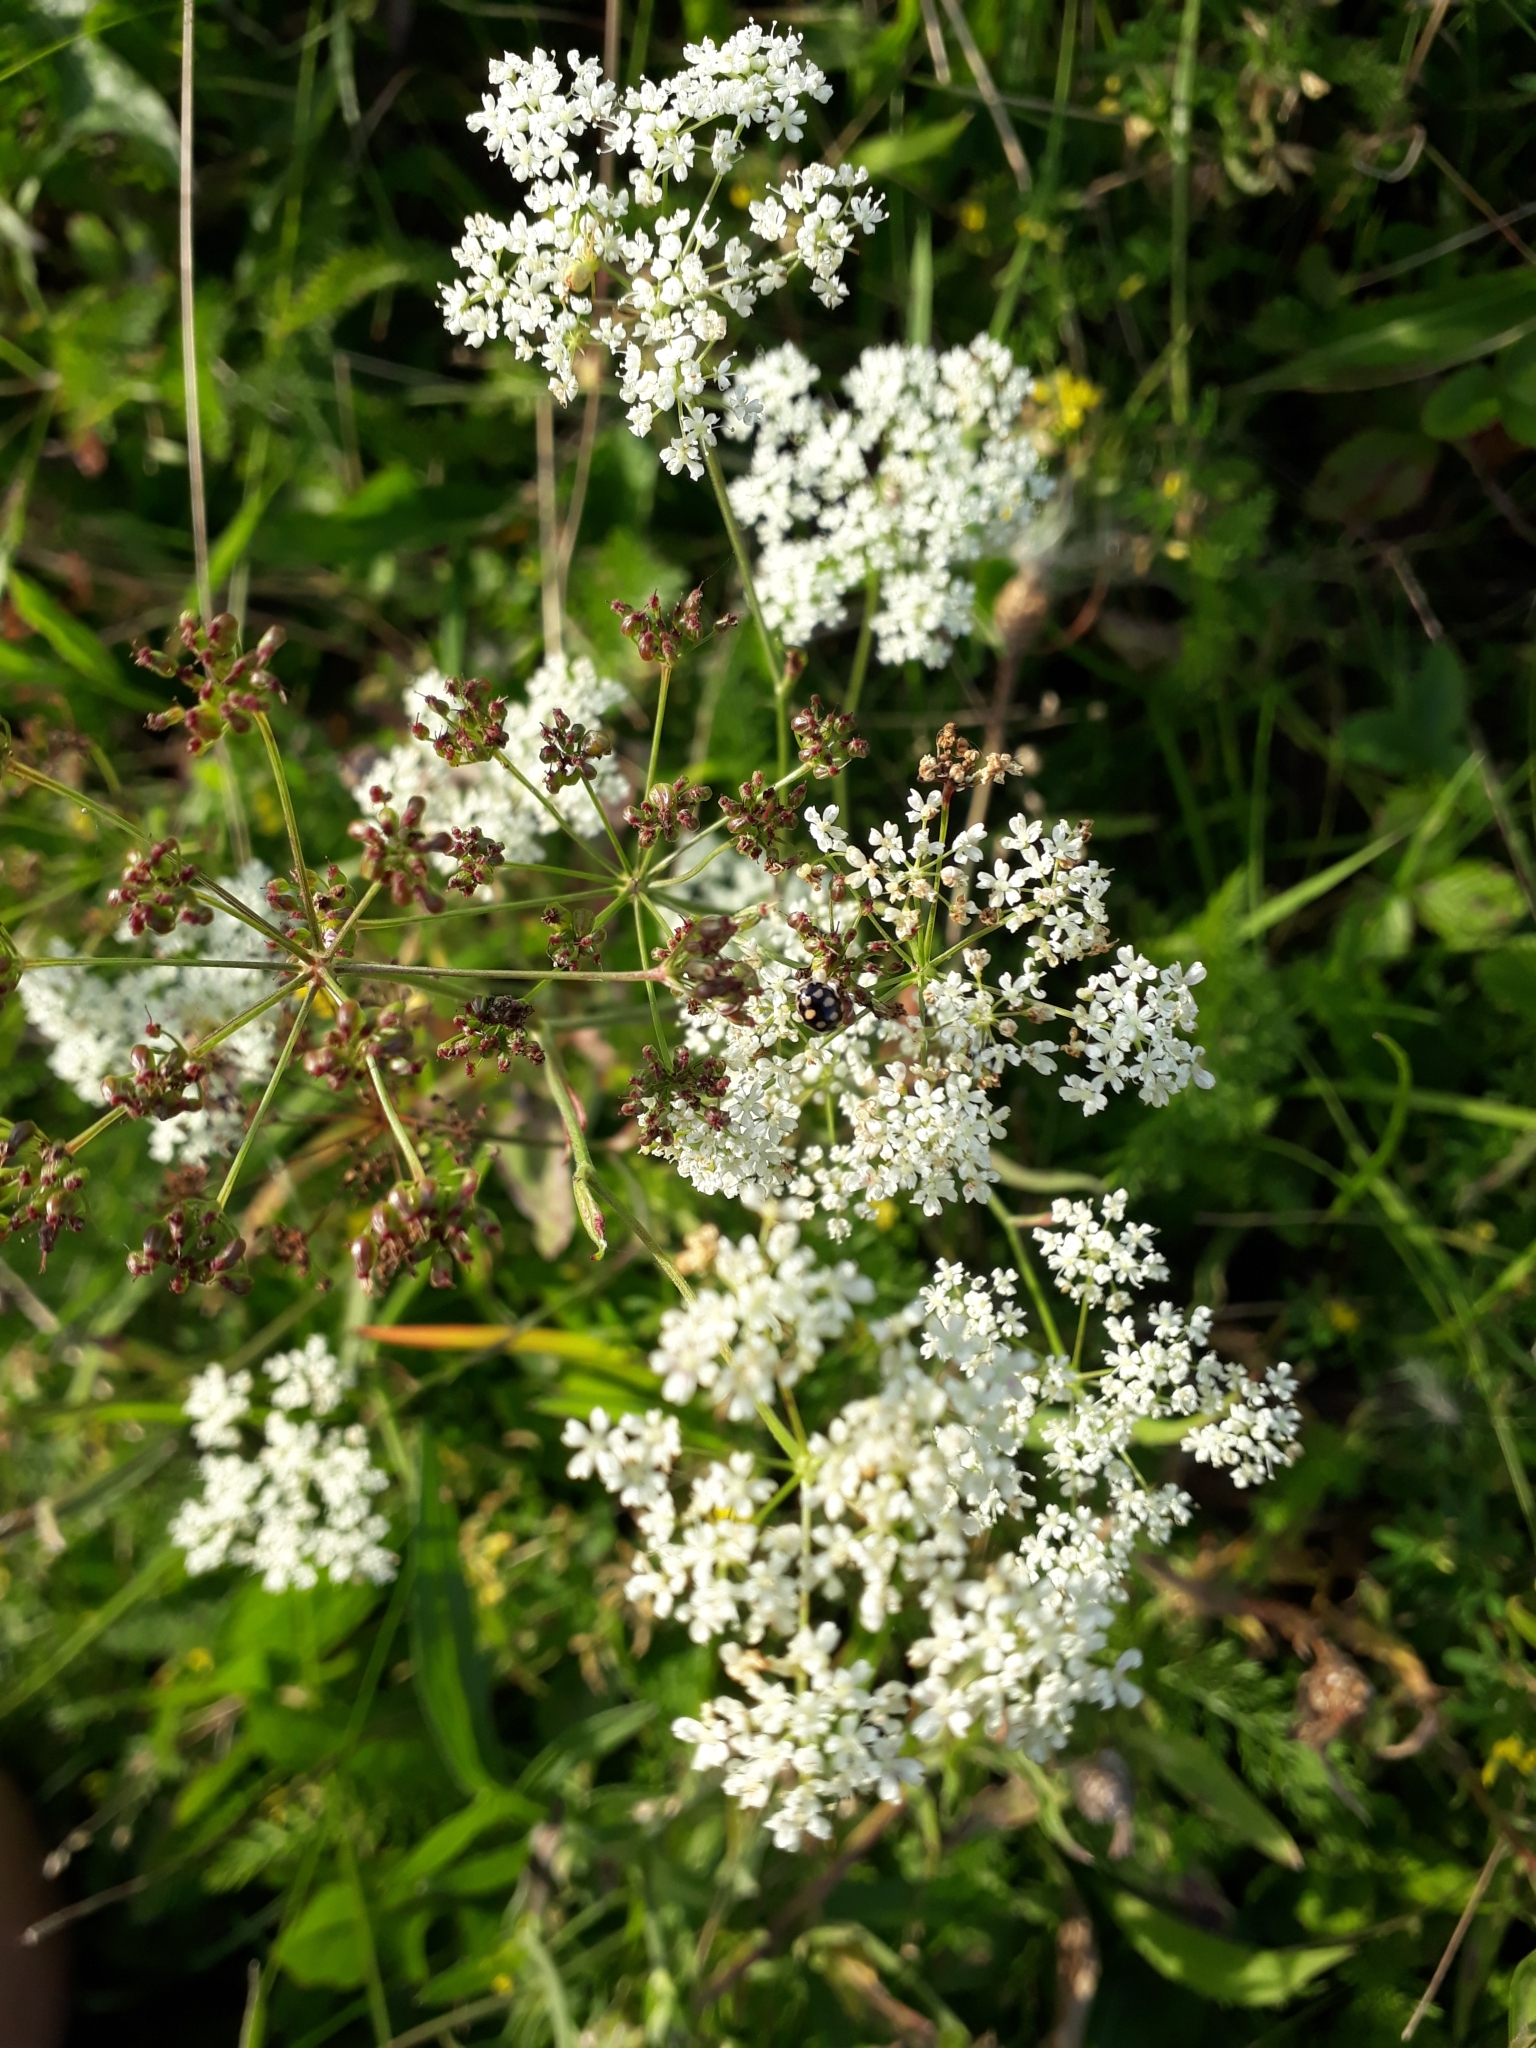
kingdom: Plantae
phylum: Tracheophyta
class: Magnoliopsida
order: Apiales
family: Apiaceae
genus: Pimpinella
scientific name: Pimpinella saxifraga
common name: Burnet-saxifrage
